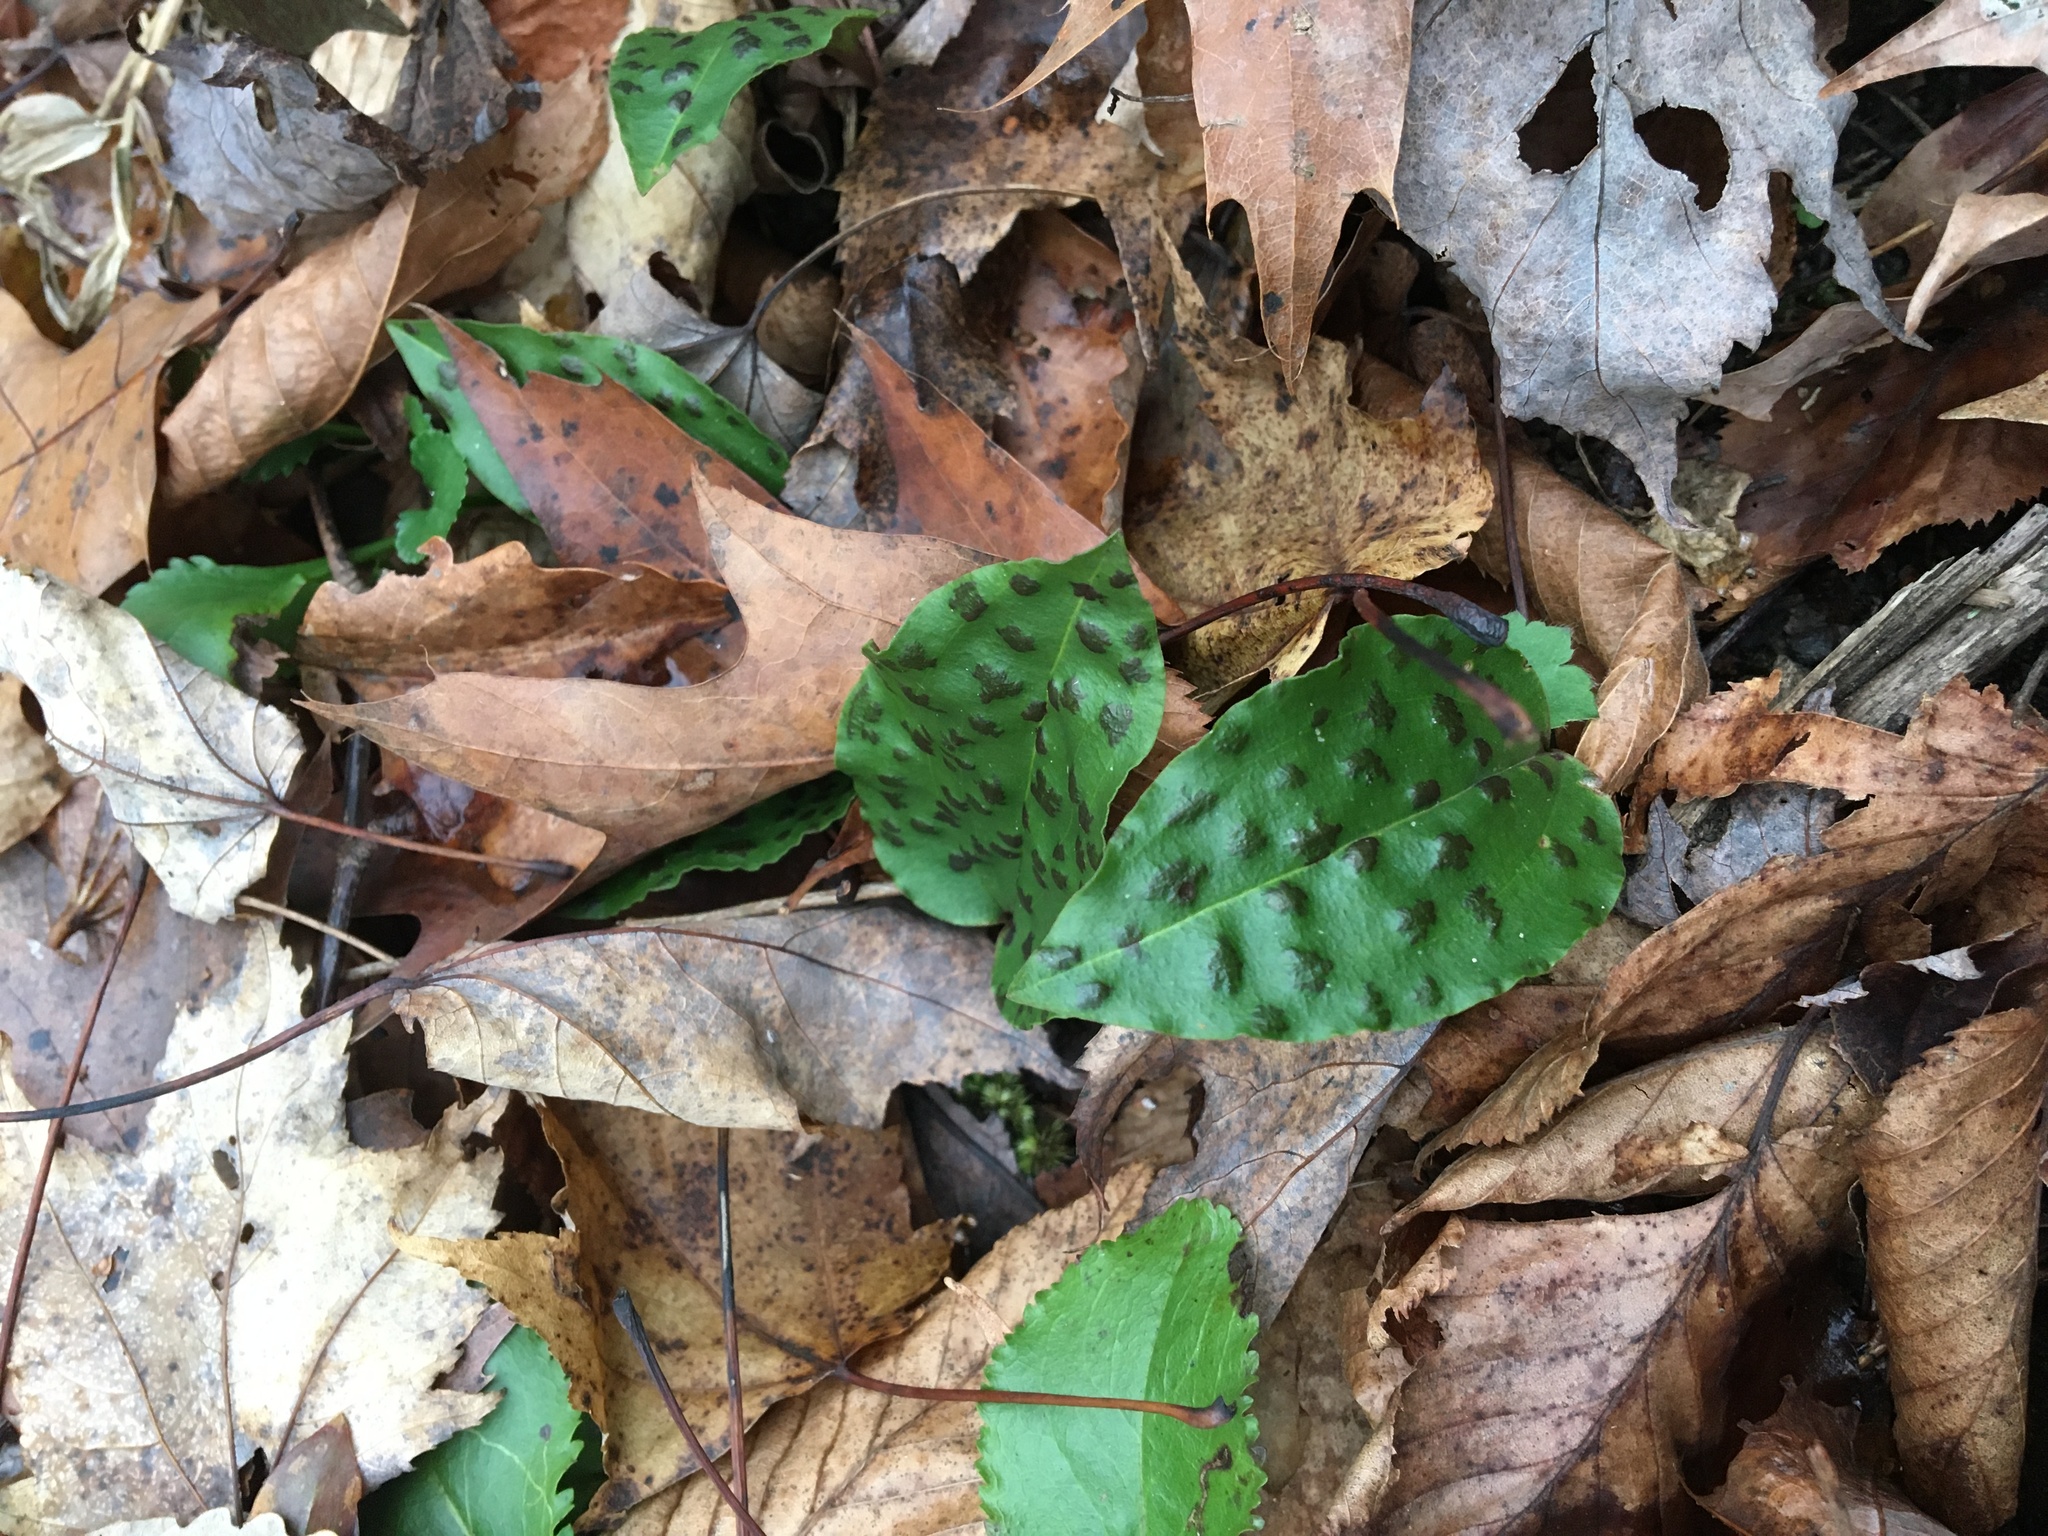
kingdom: Plantae
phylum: Tracheophyta
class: Liliopsida
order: Asparagales
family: Orchidaceae
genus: Tipularia
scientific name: Tipularia discolor
